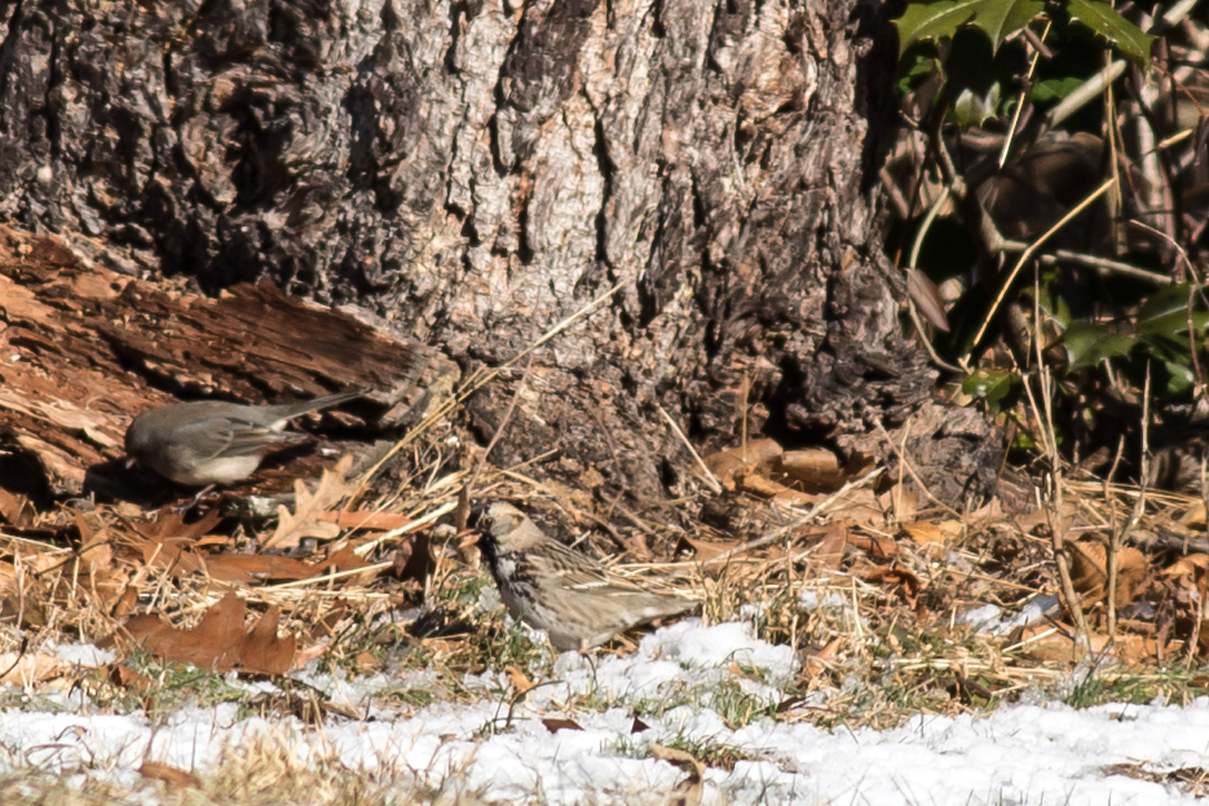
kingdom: Animalia
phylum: Chordata
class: Aves
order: Passeriformes
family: Passerellidae
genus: Zonotrichia
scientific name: Zonotrichia querula
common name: Harris's sparrow
